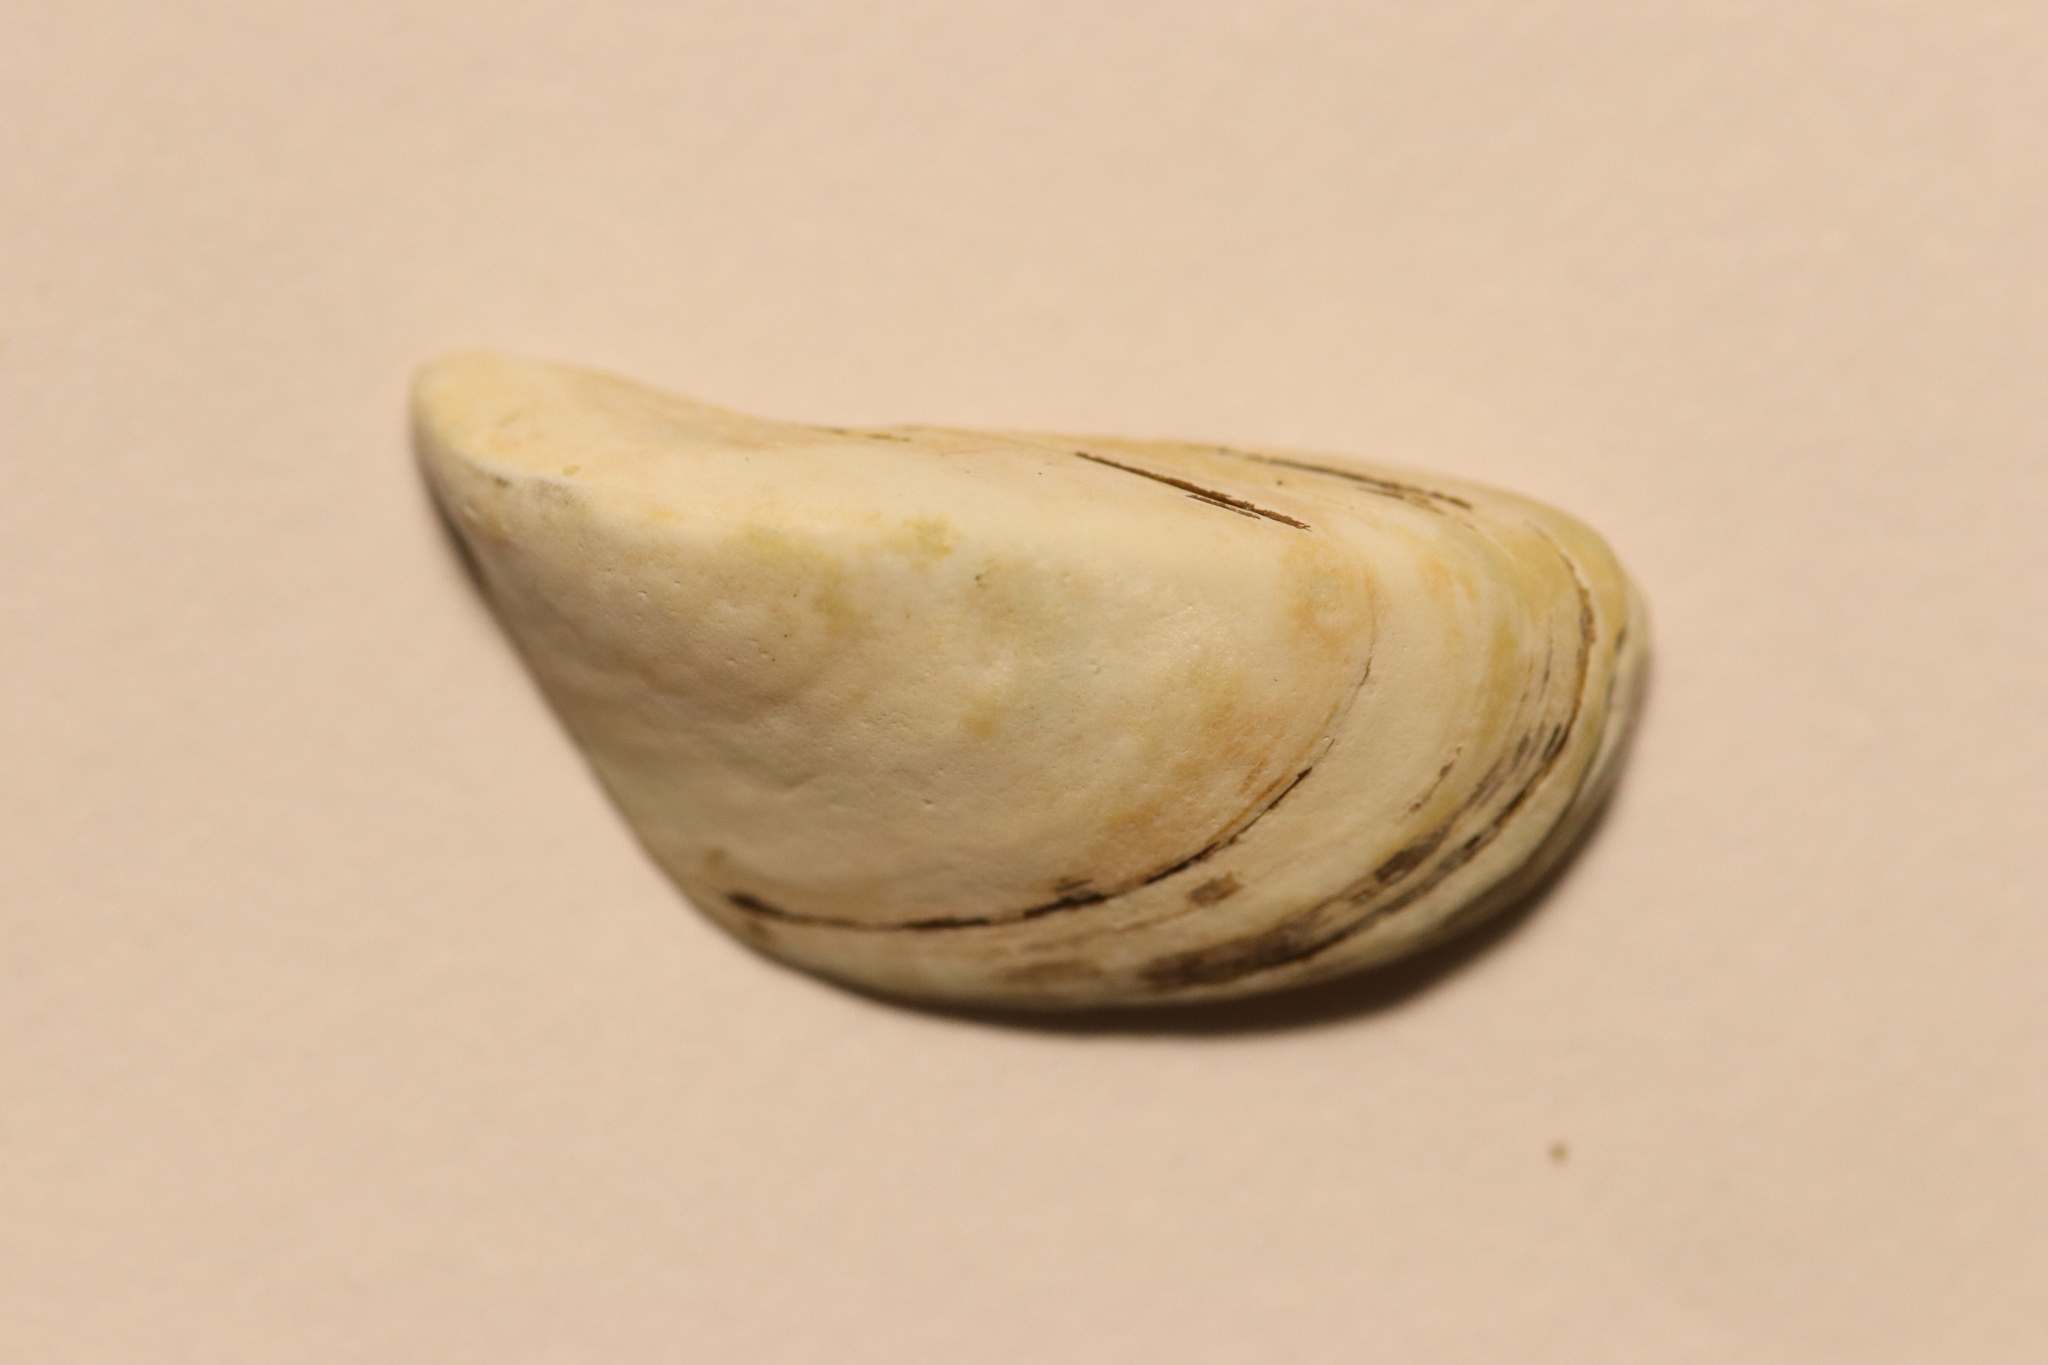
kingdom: Animalia
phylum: Mollusca
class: Bivalvia
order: Myida
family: Dreissenidae
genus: Dreissena
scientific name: Dreissena polymorpha
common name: Zebra mussel
